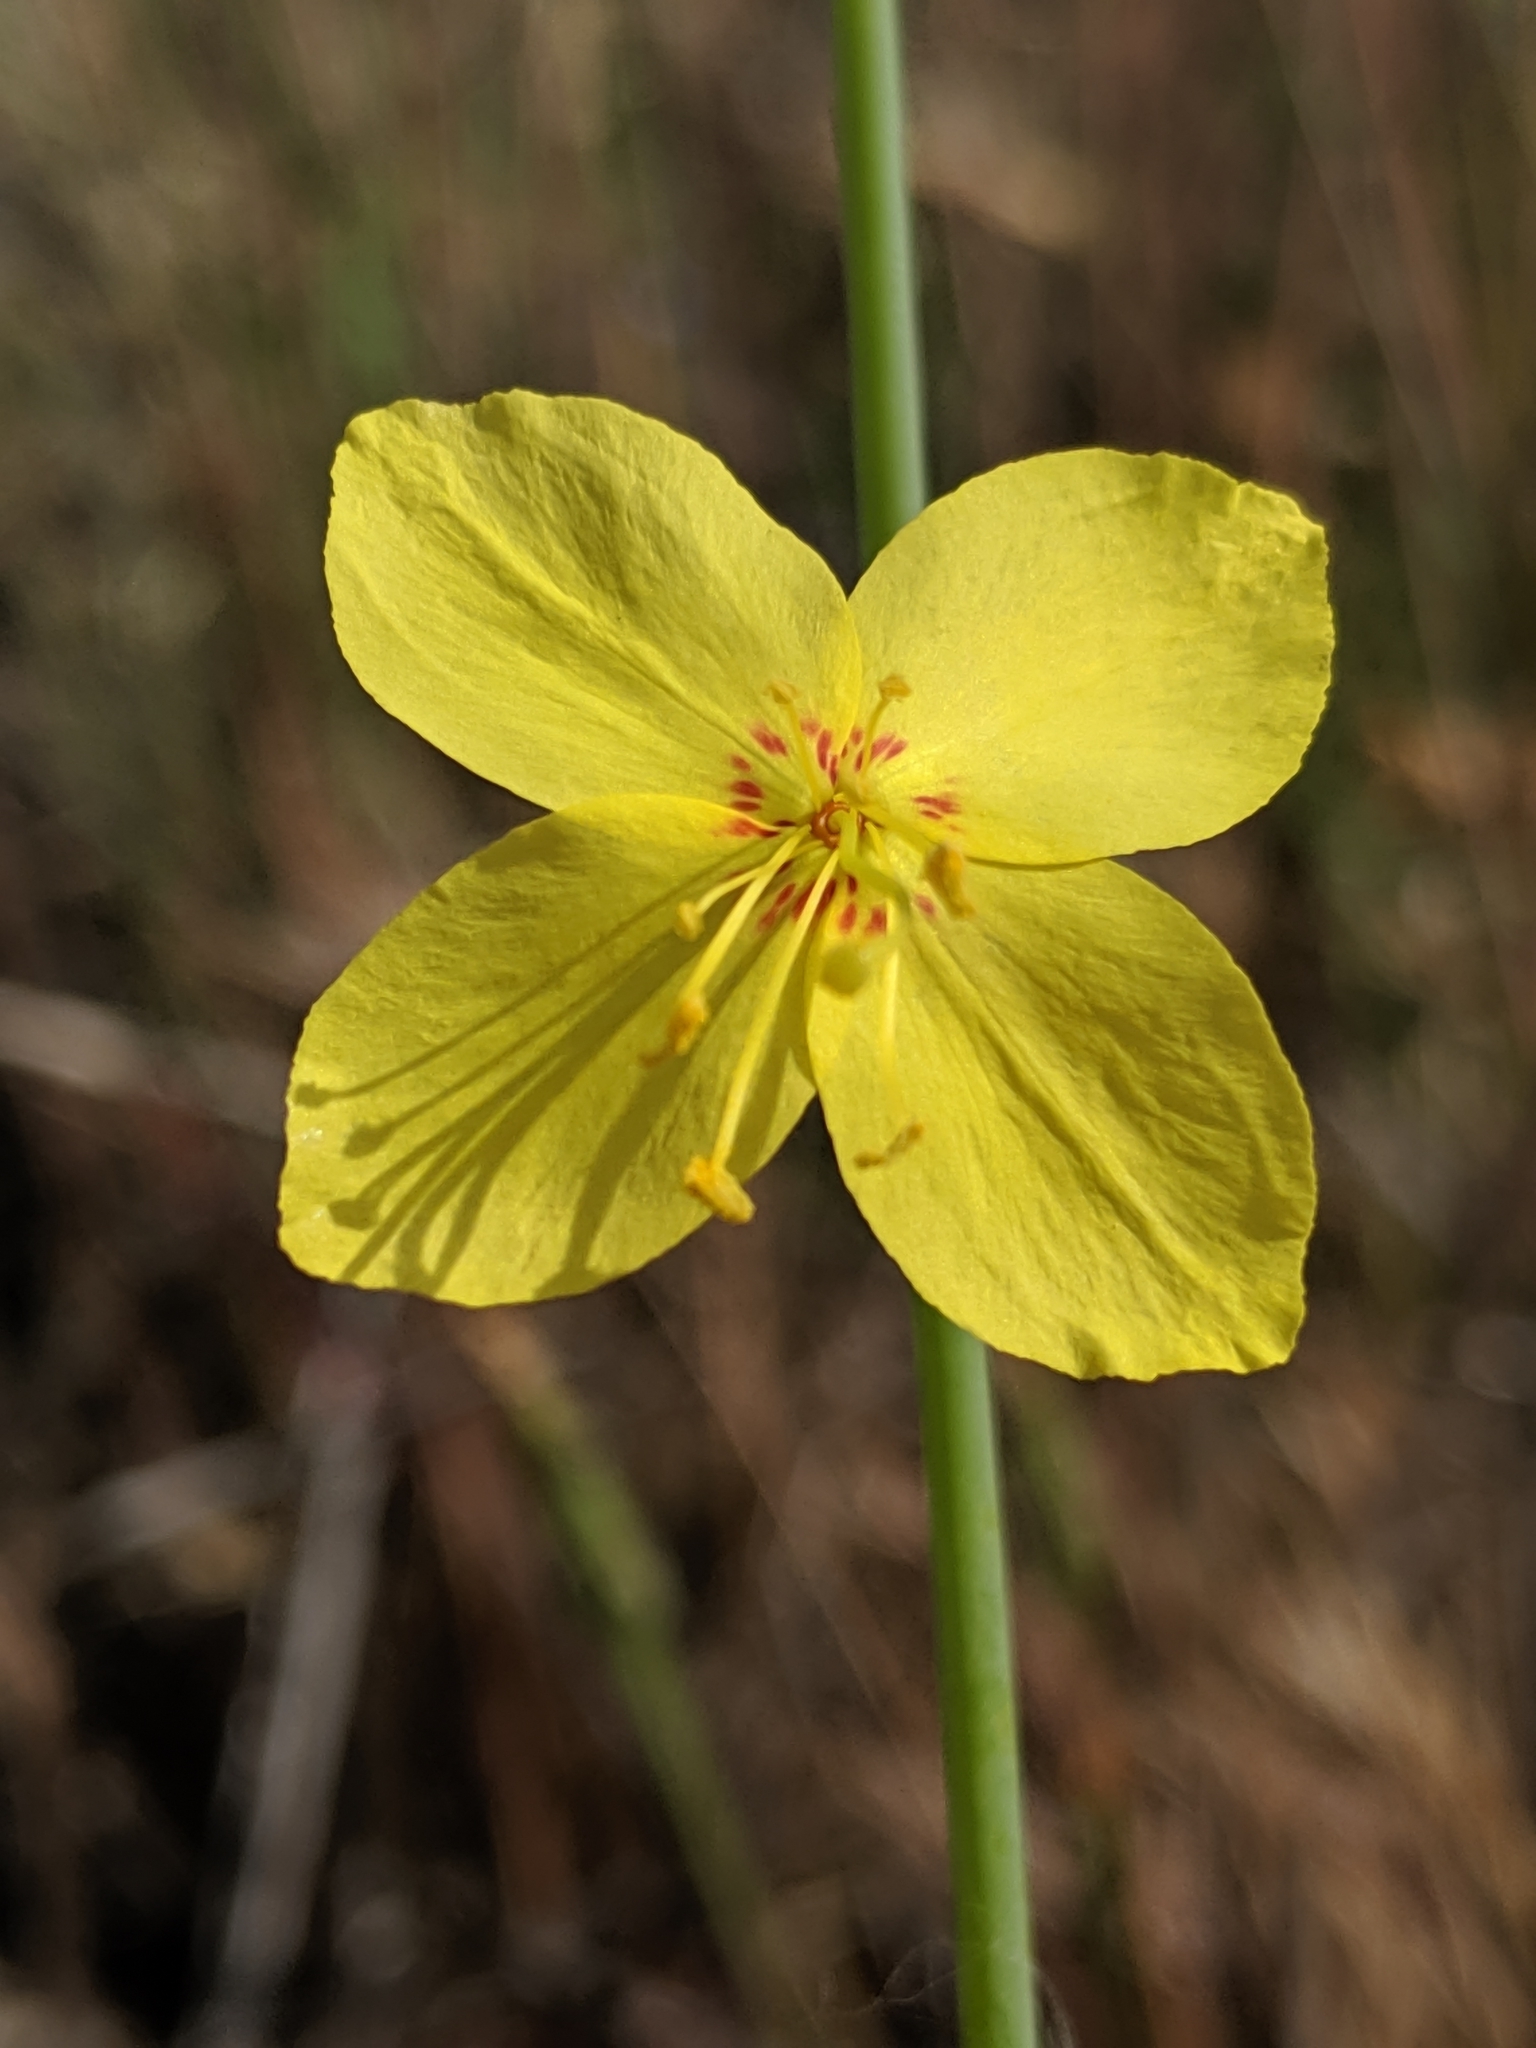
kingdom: Plantae
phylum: Tracheophyta
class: Magnoliopsida
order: Myrtales
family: Onagraceae
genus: Eulobus
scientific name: Eulobus californicus
